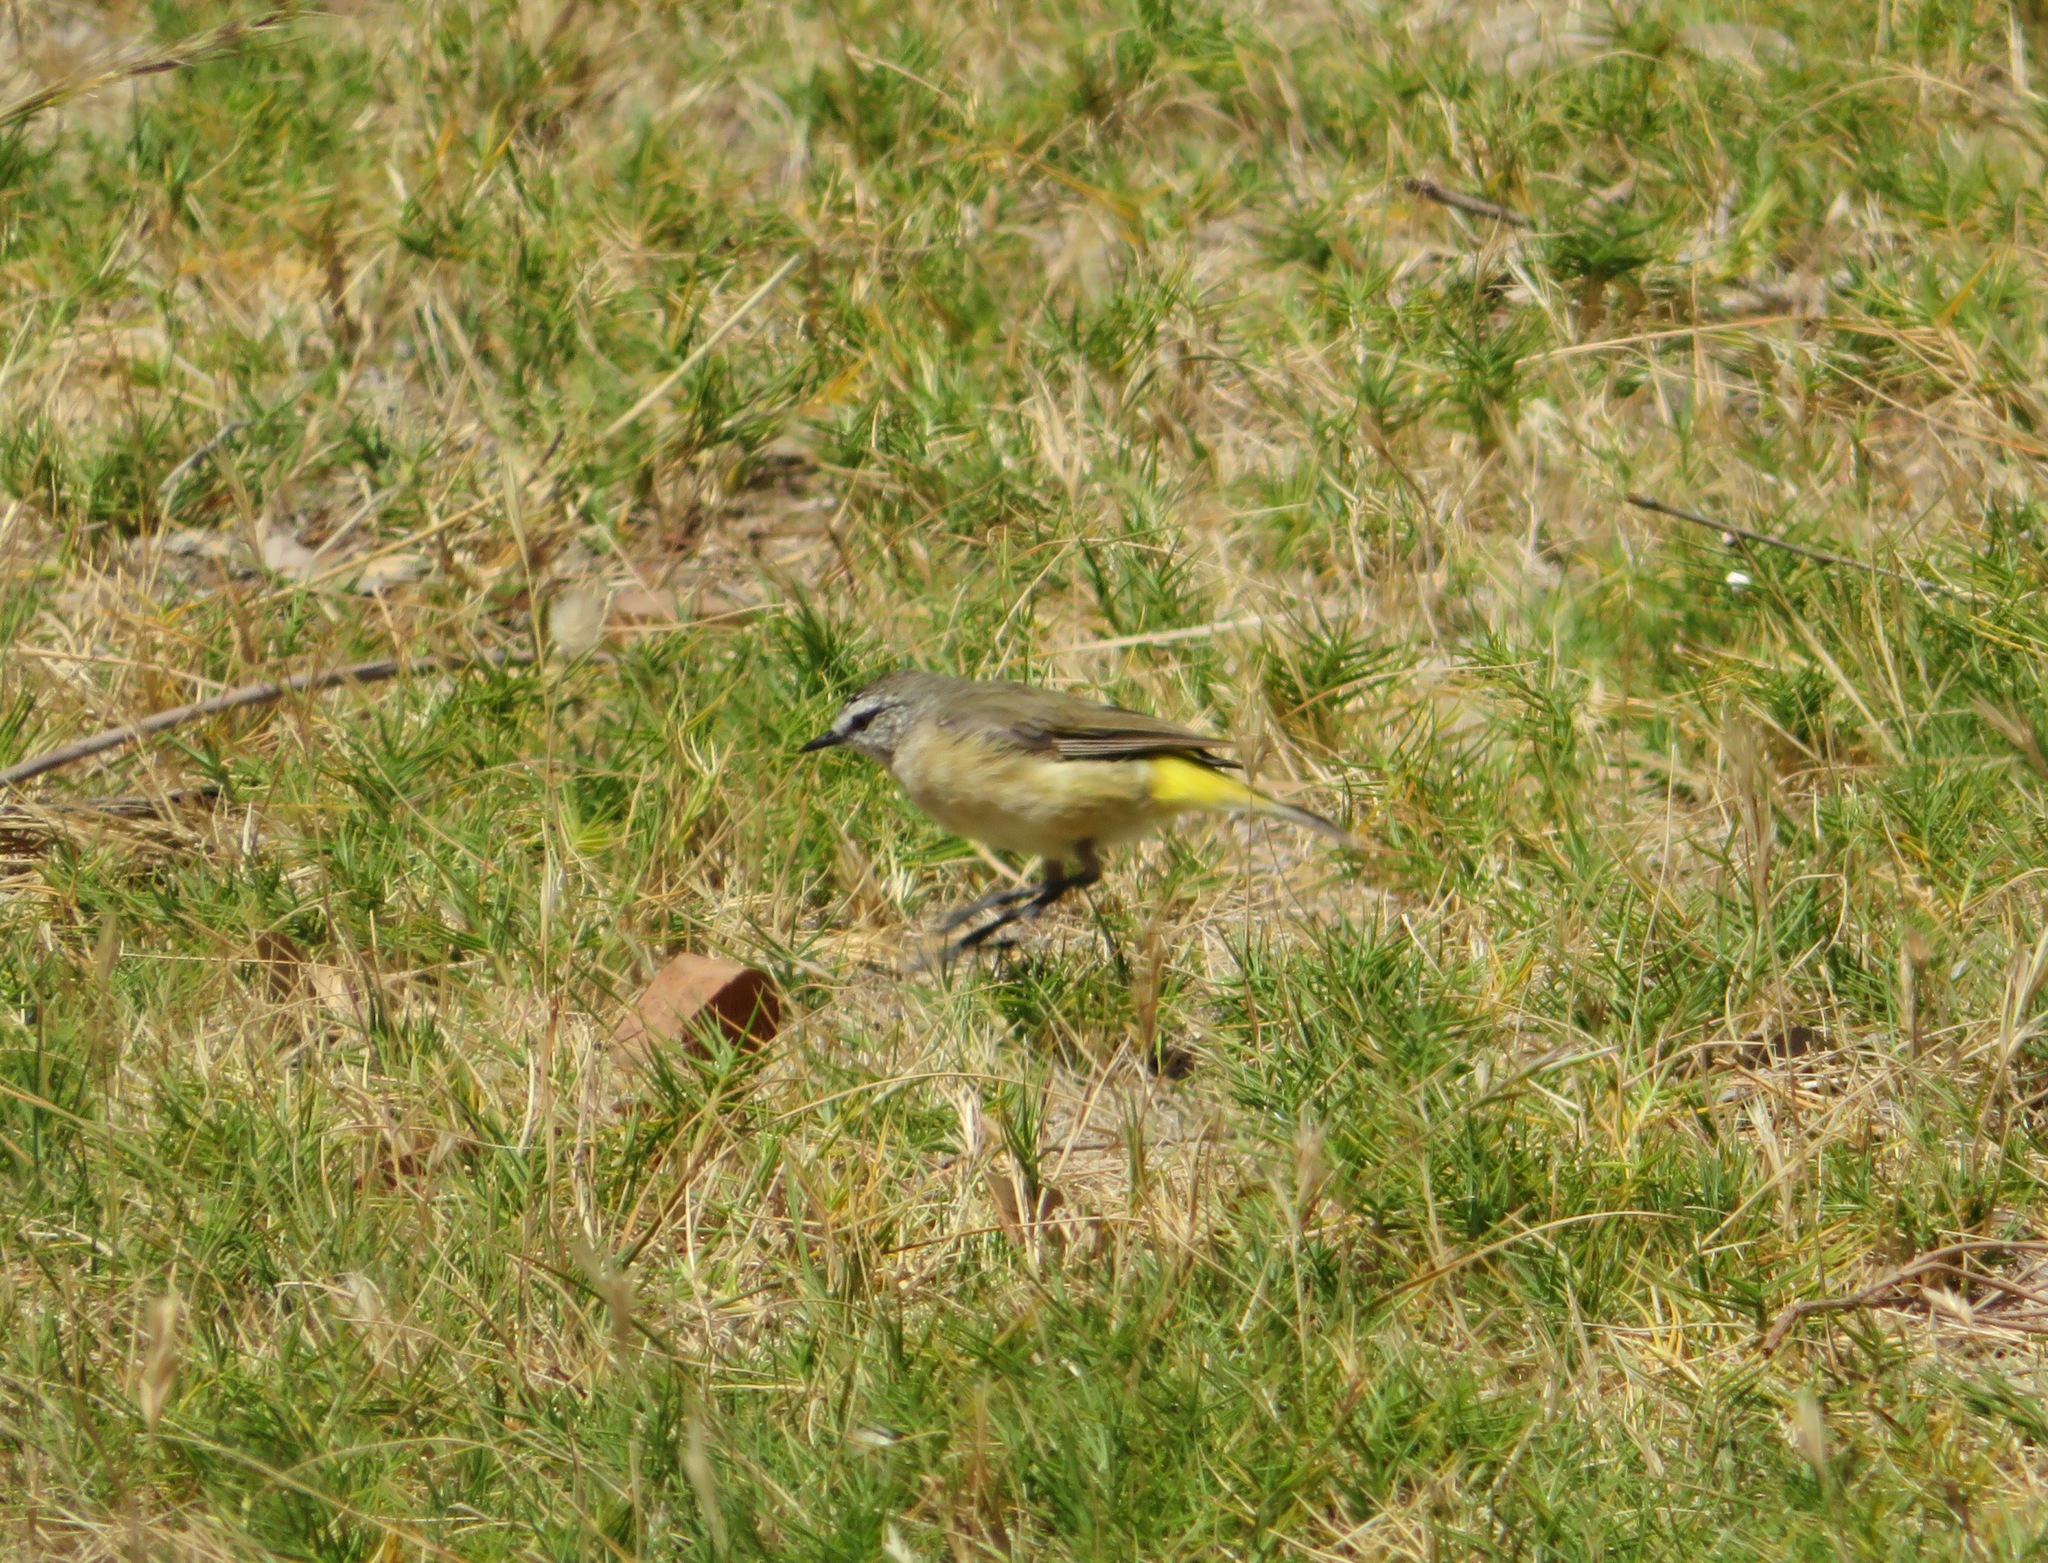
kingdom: Animalia
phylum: Chordata
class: Aves
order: Passeriformes
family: Acanthizidae
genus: Acanthiza
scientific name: Acanthiza chrysorrhoa
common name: Yellow-rumped thornbill
